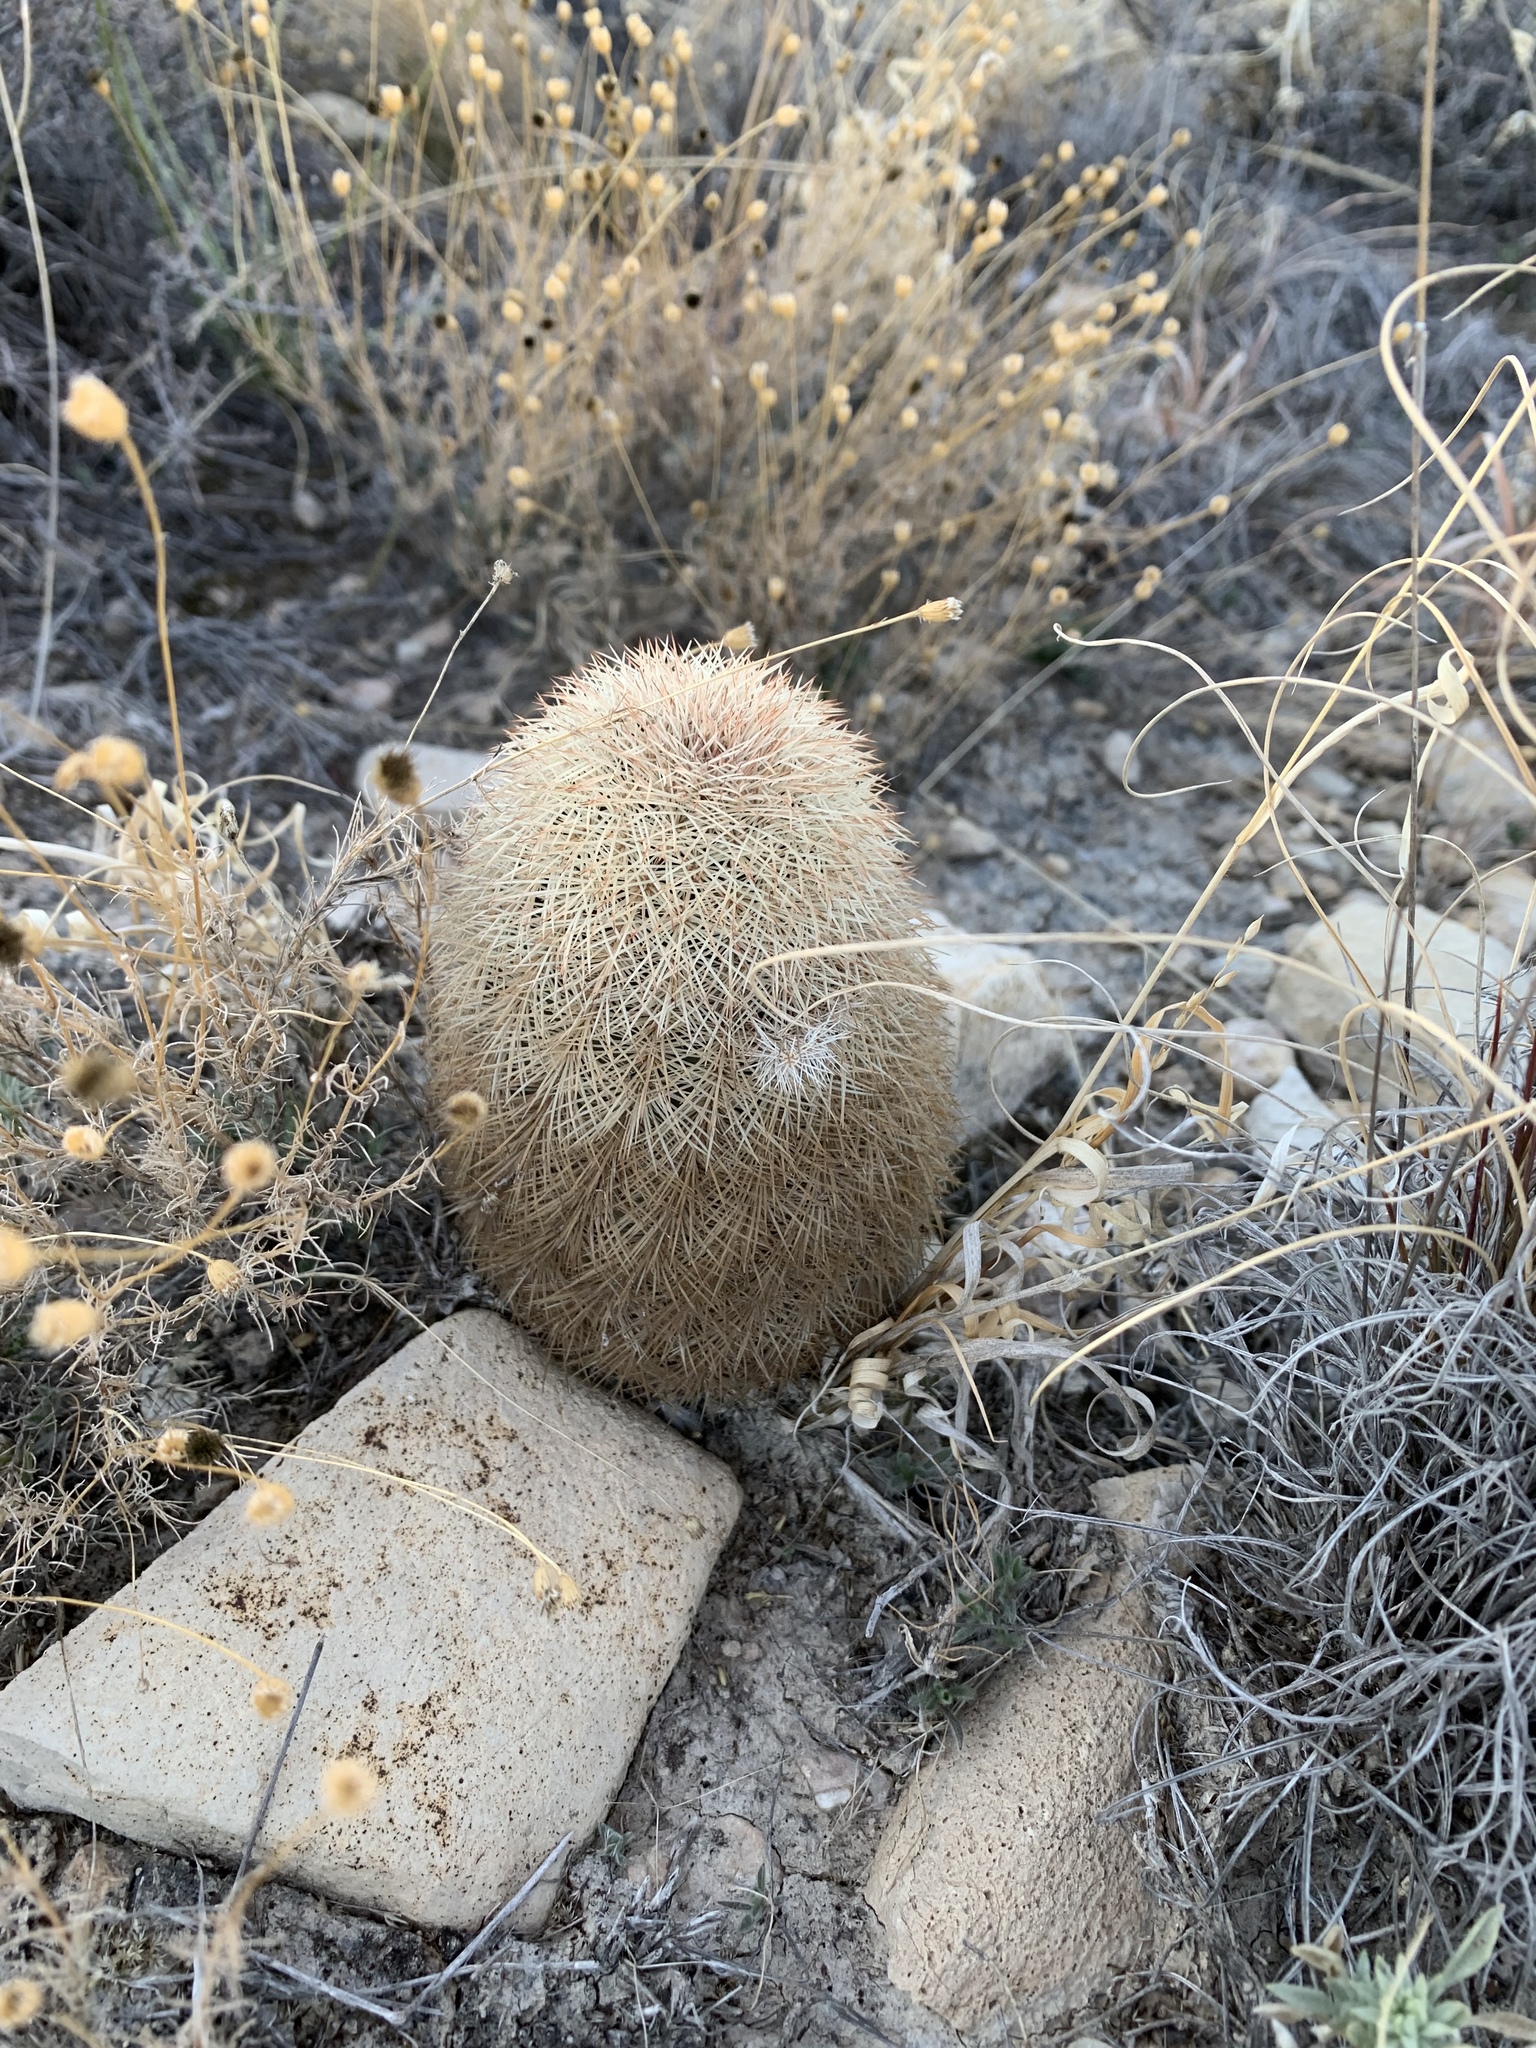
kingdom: Plantae
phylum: Tracheophyta
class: Magnoliopsida
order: Caryophyllales
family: Cactaceae
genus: Echinocereus
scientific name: Echinocereus dasyacanthus
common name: Spiny hedgehog cactus
